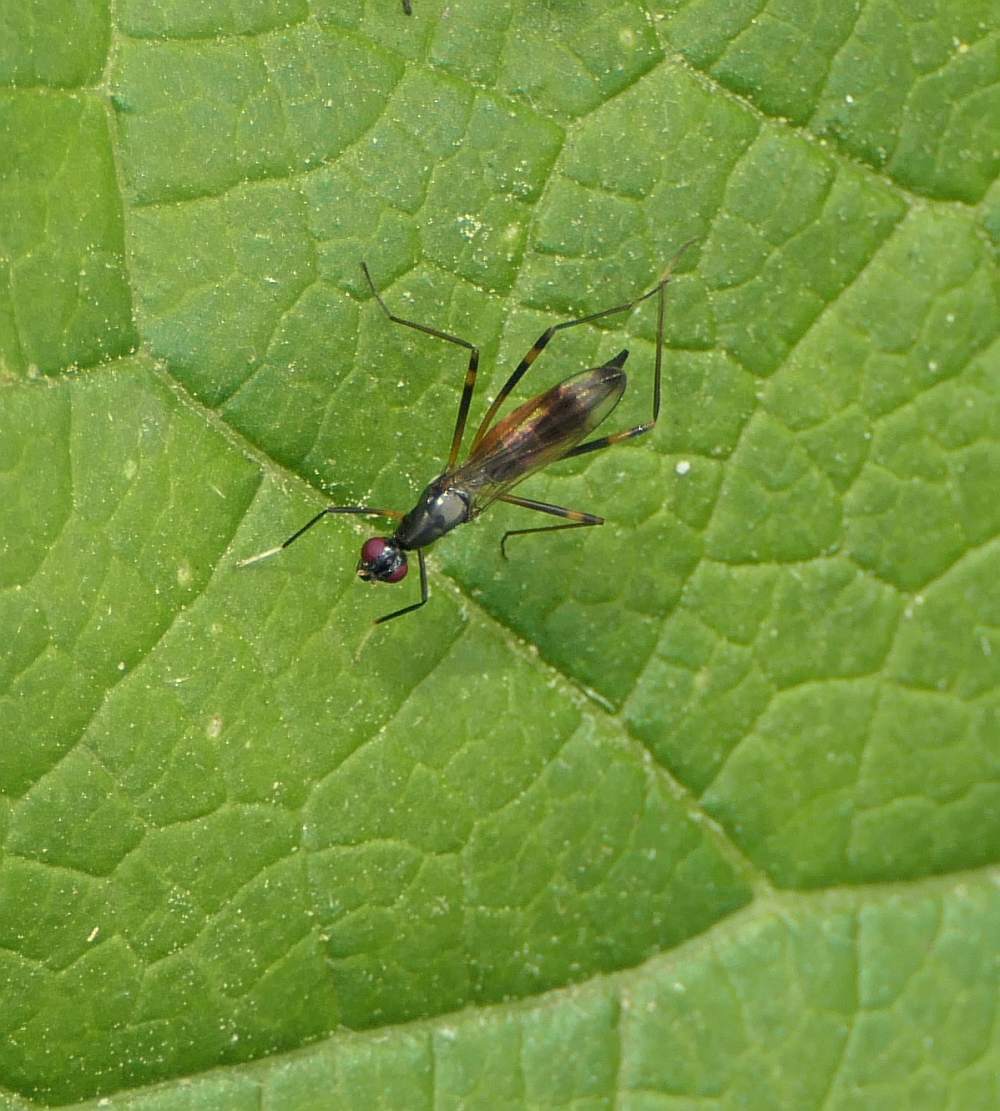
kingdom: Animalia
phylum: Arthropoda
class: Insecta
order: Diptera
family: Micropezidae
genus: Rainieria
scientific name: Rainieria antennaepes
